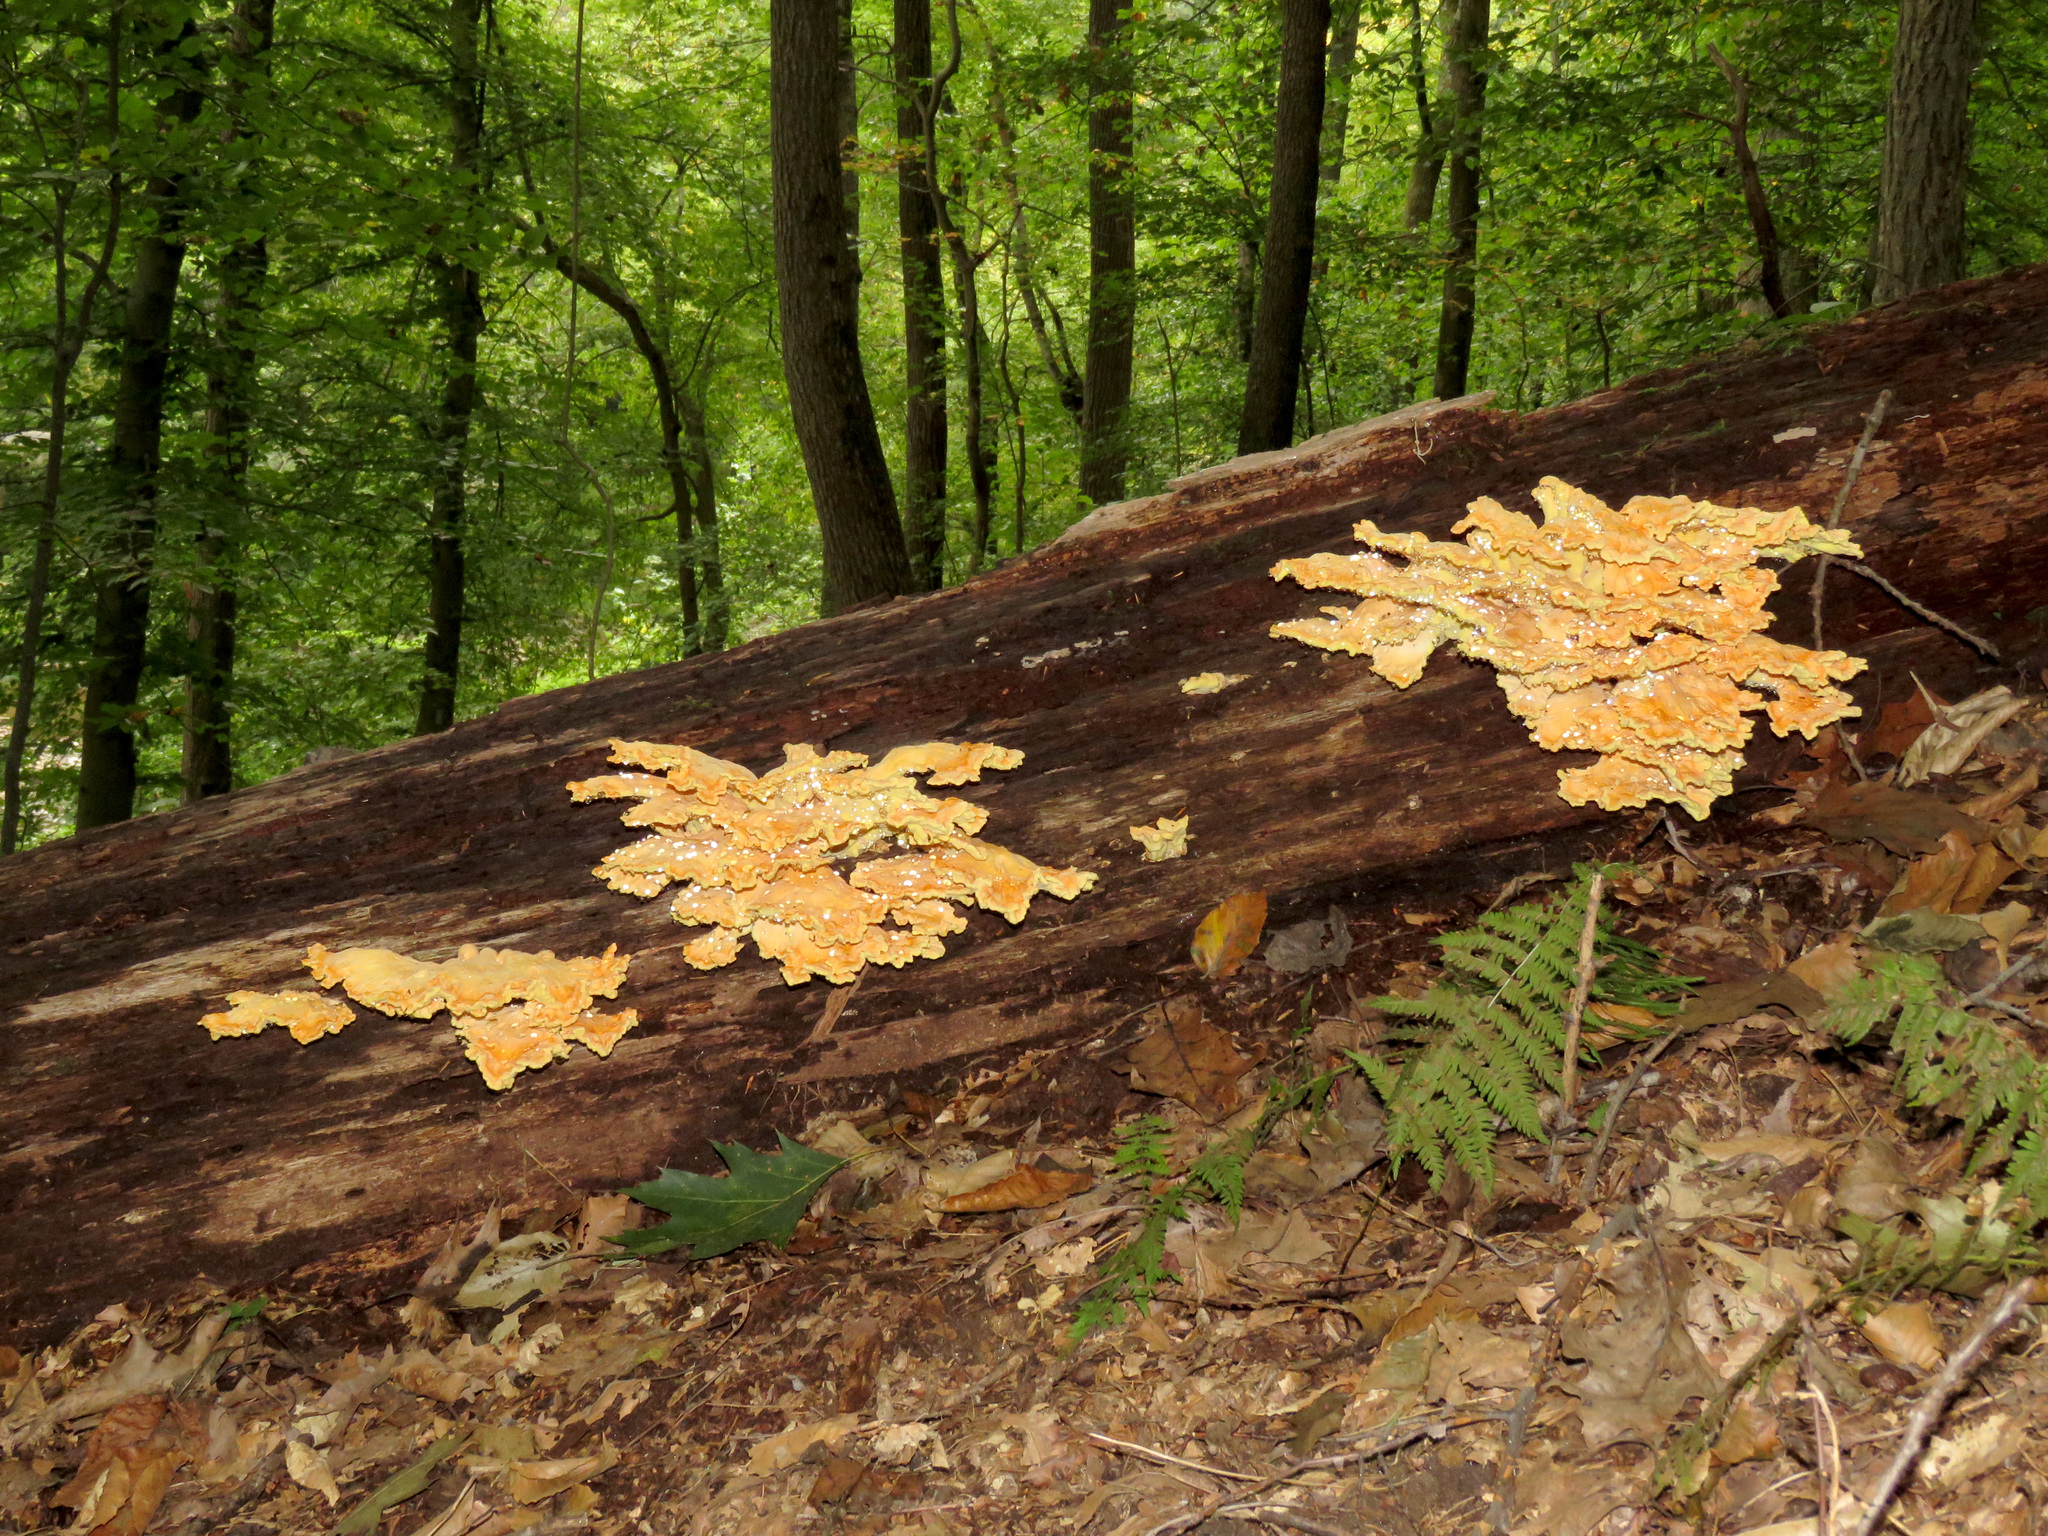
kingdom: Fungi
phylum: Basidiomycota
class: Agaricomycetes
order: Polyporales
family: Laetiporaceae
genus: Laetiporus
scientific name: Laetiporus sulphureus
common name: Chicken of the woods
